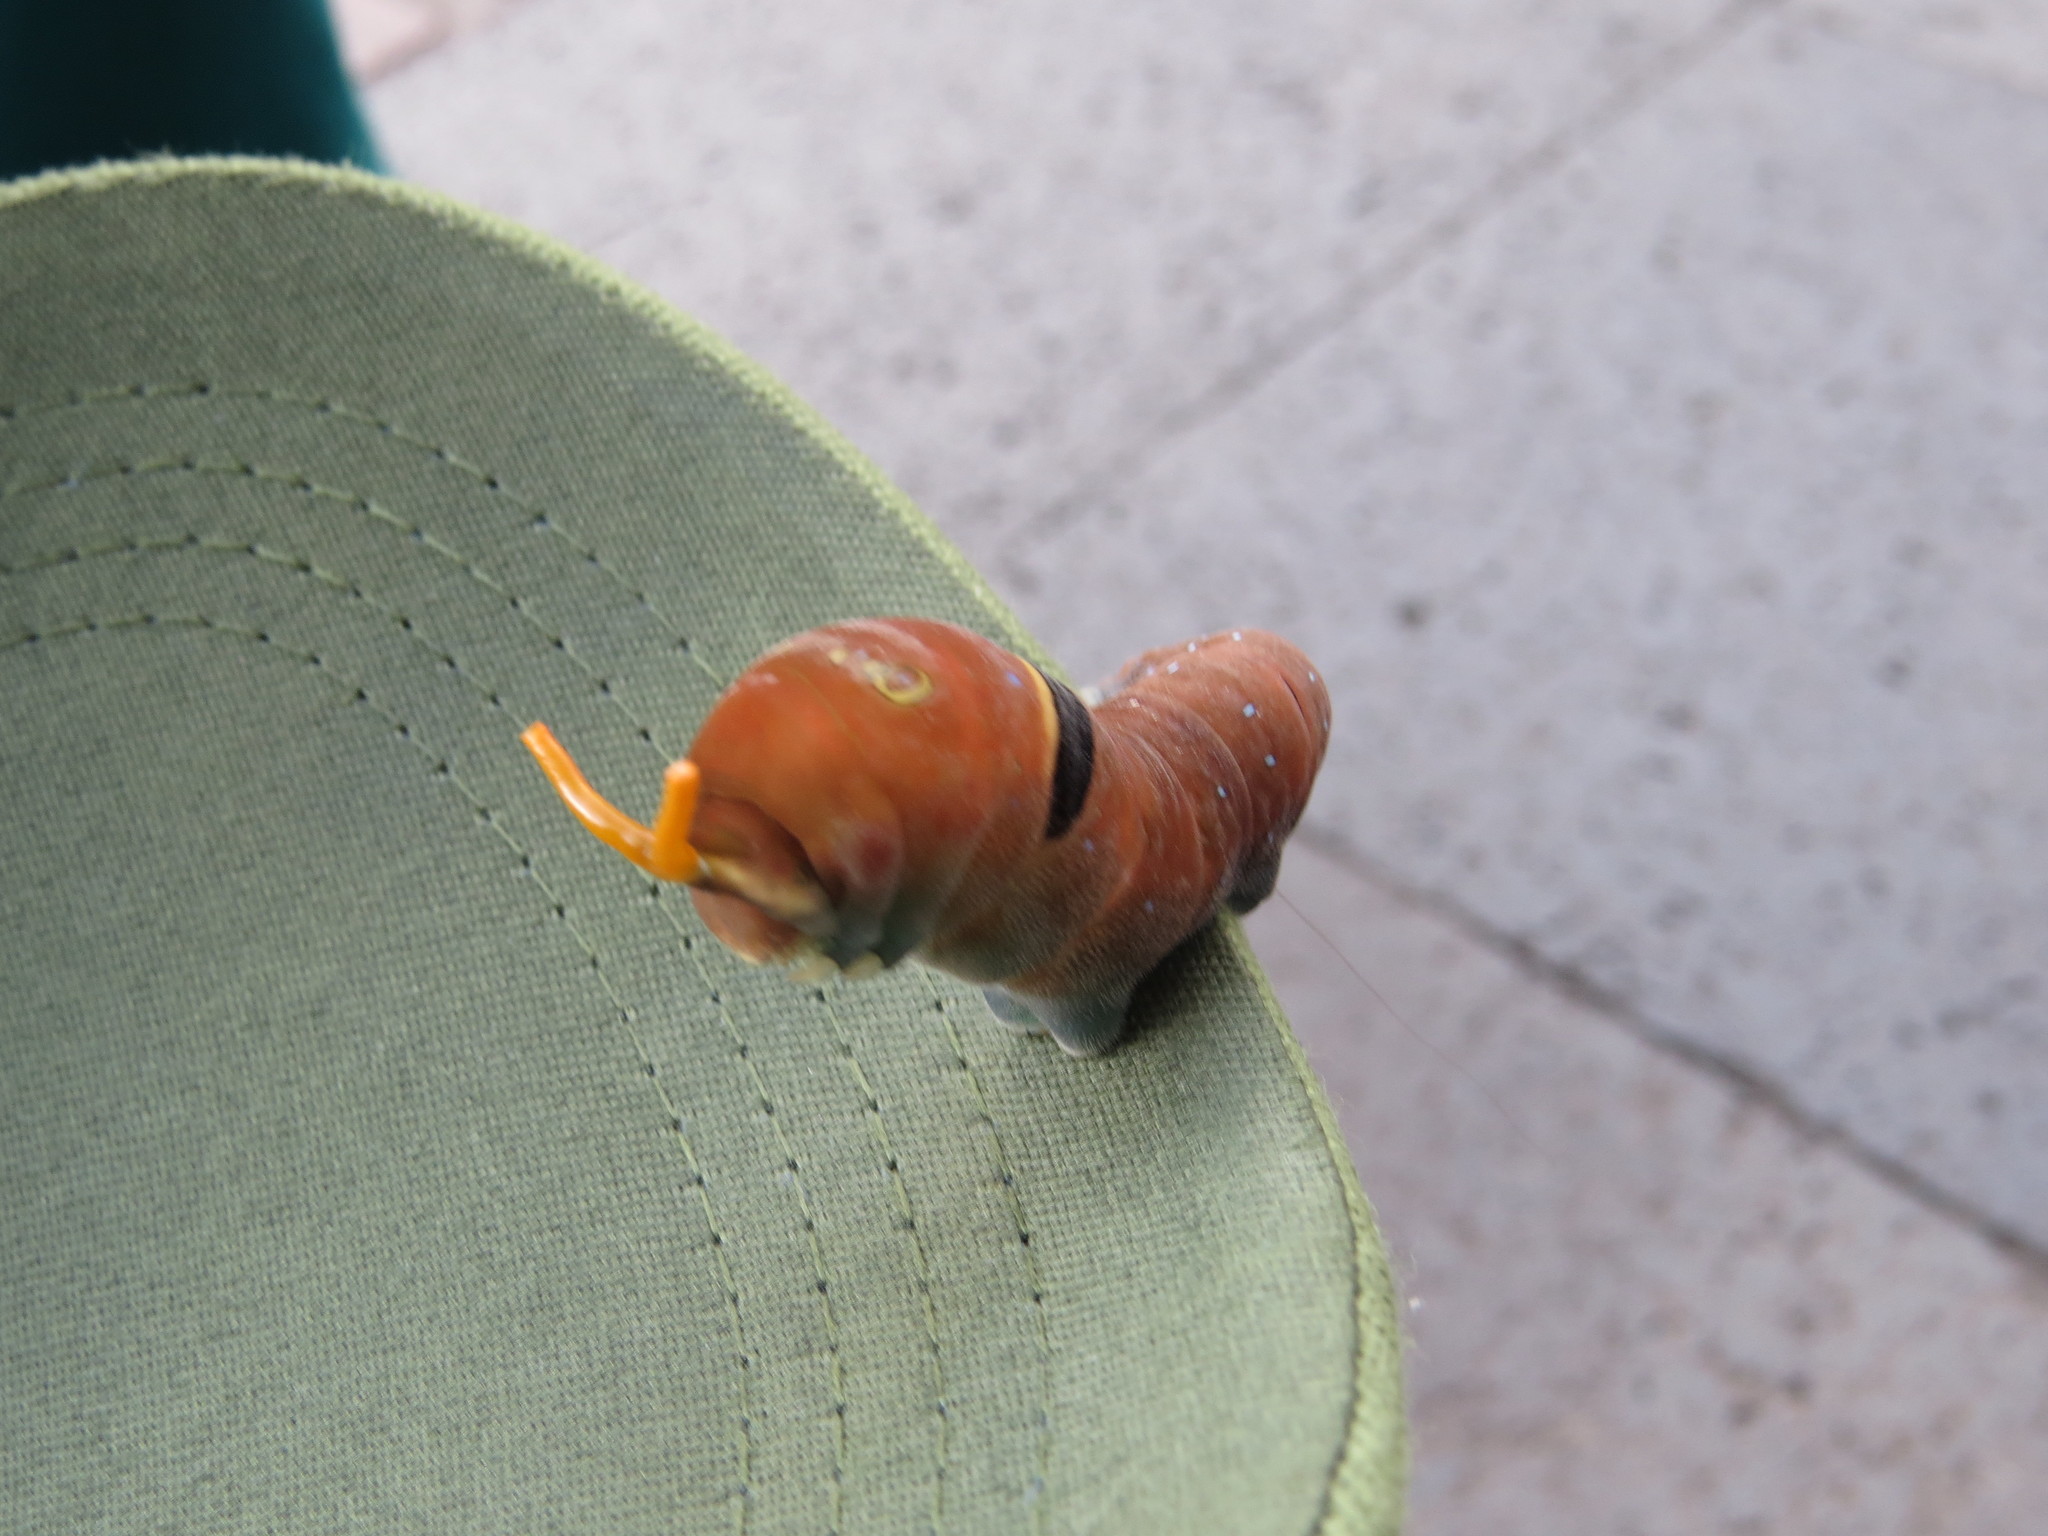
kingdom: Animalia
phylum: Arthropoda
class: Insecta
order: Lepidoptera
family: Papilionidae
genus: Papilio
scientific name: Papilio multicaudata
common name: Two-tailed tiger swallowtail
